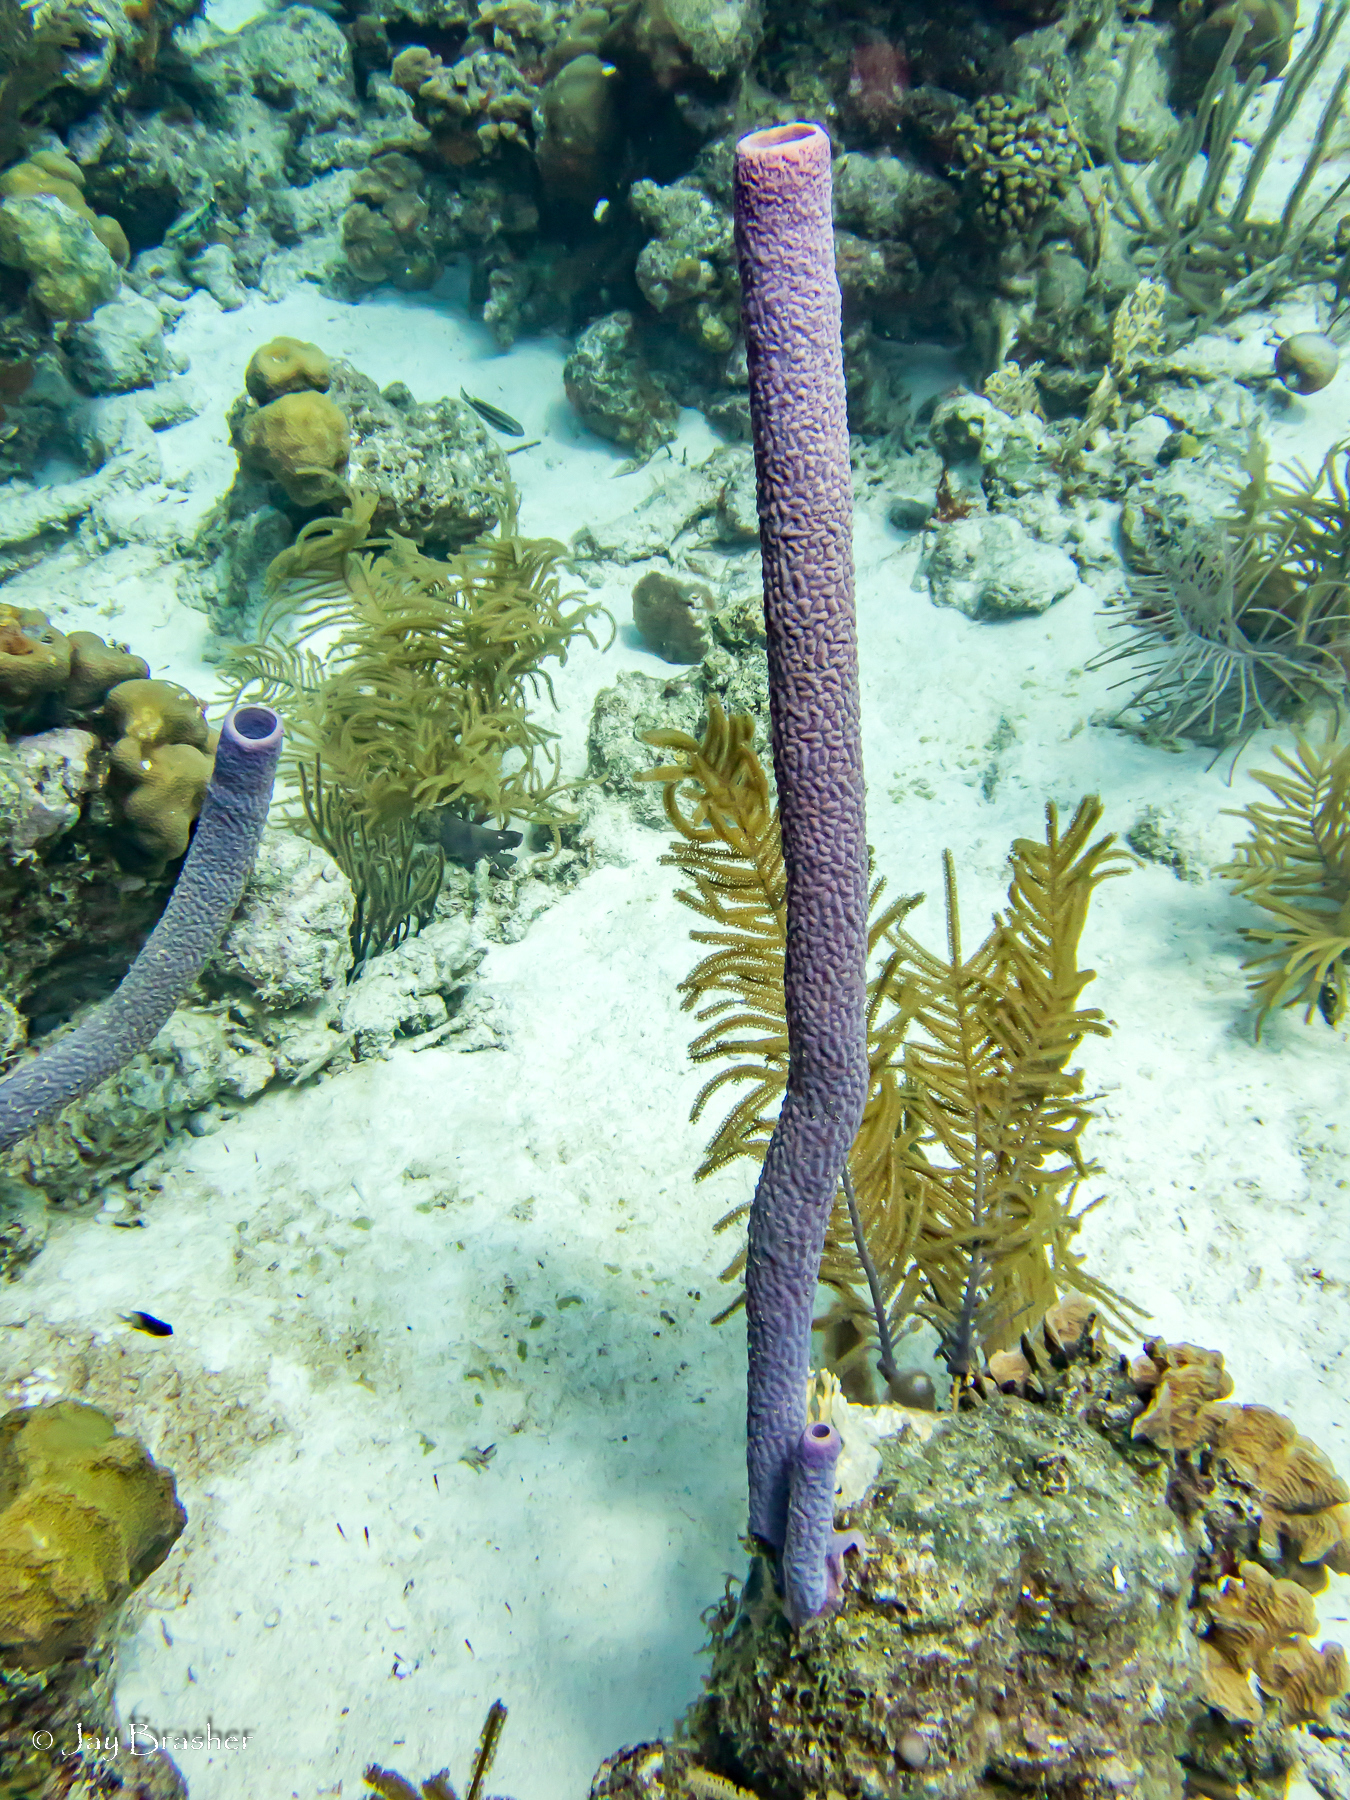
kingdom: Animalia
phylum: Porifera
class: Demospongiae
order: Verongiida
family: Aplysinidae
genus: Aplysina
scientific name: Aplysina archeri
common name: Stove-pipe sponge
